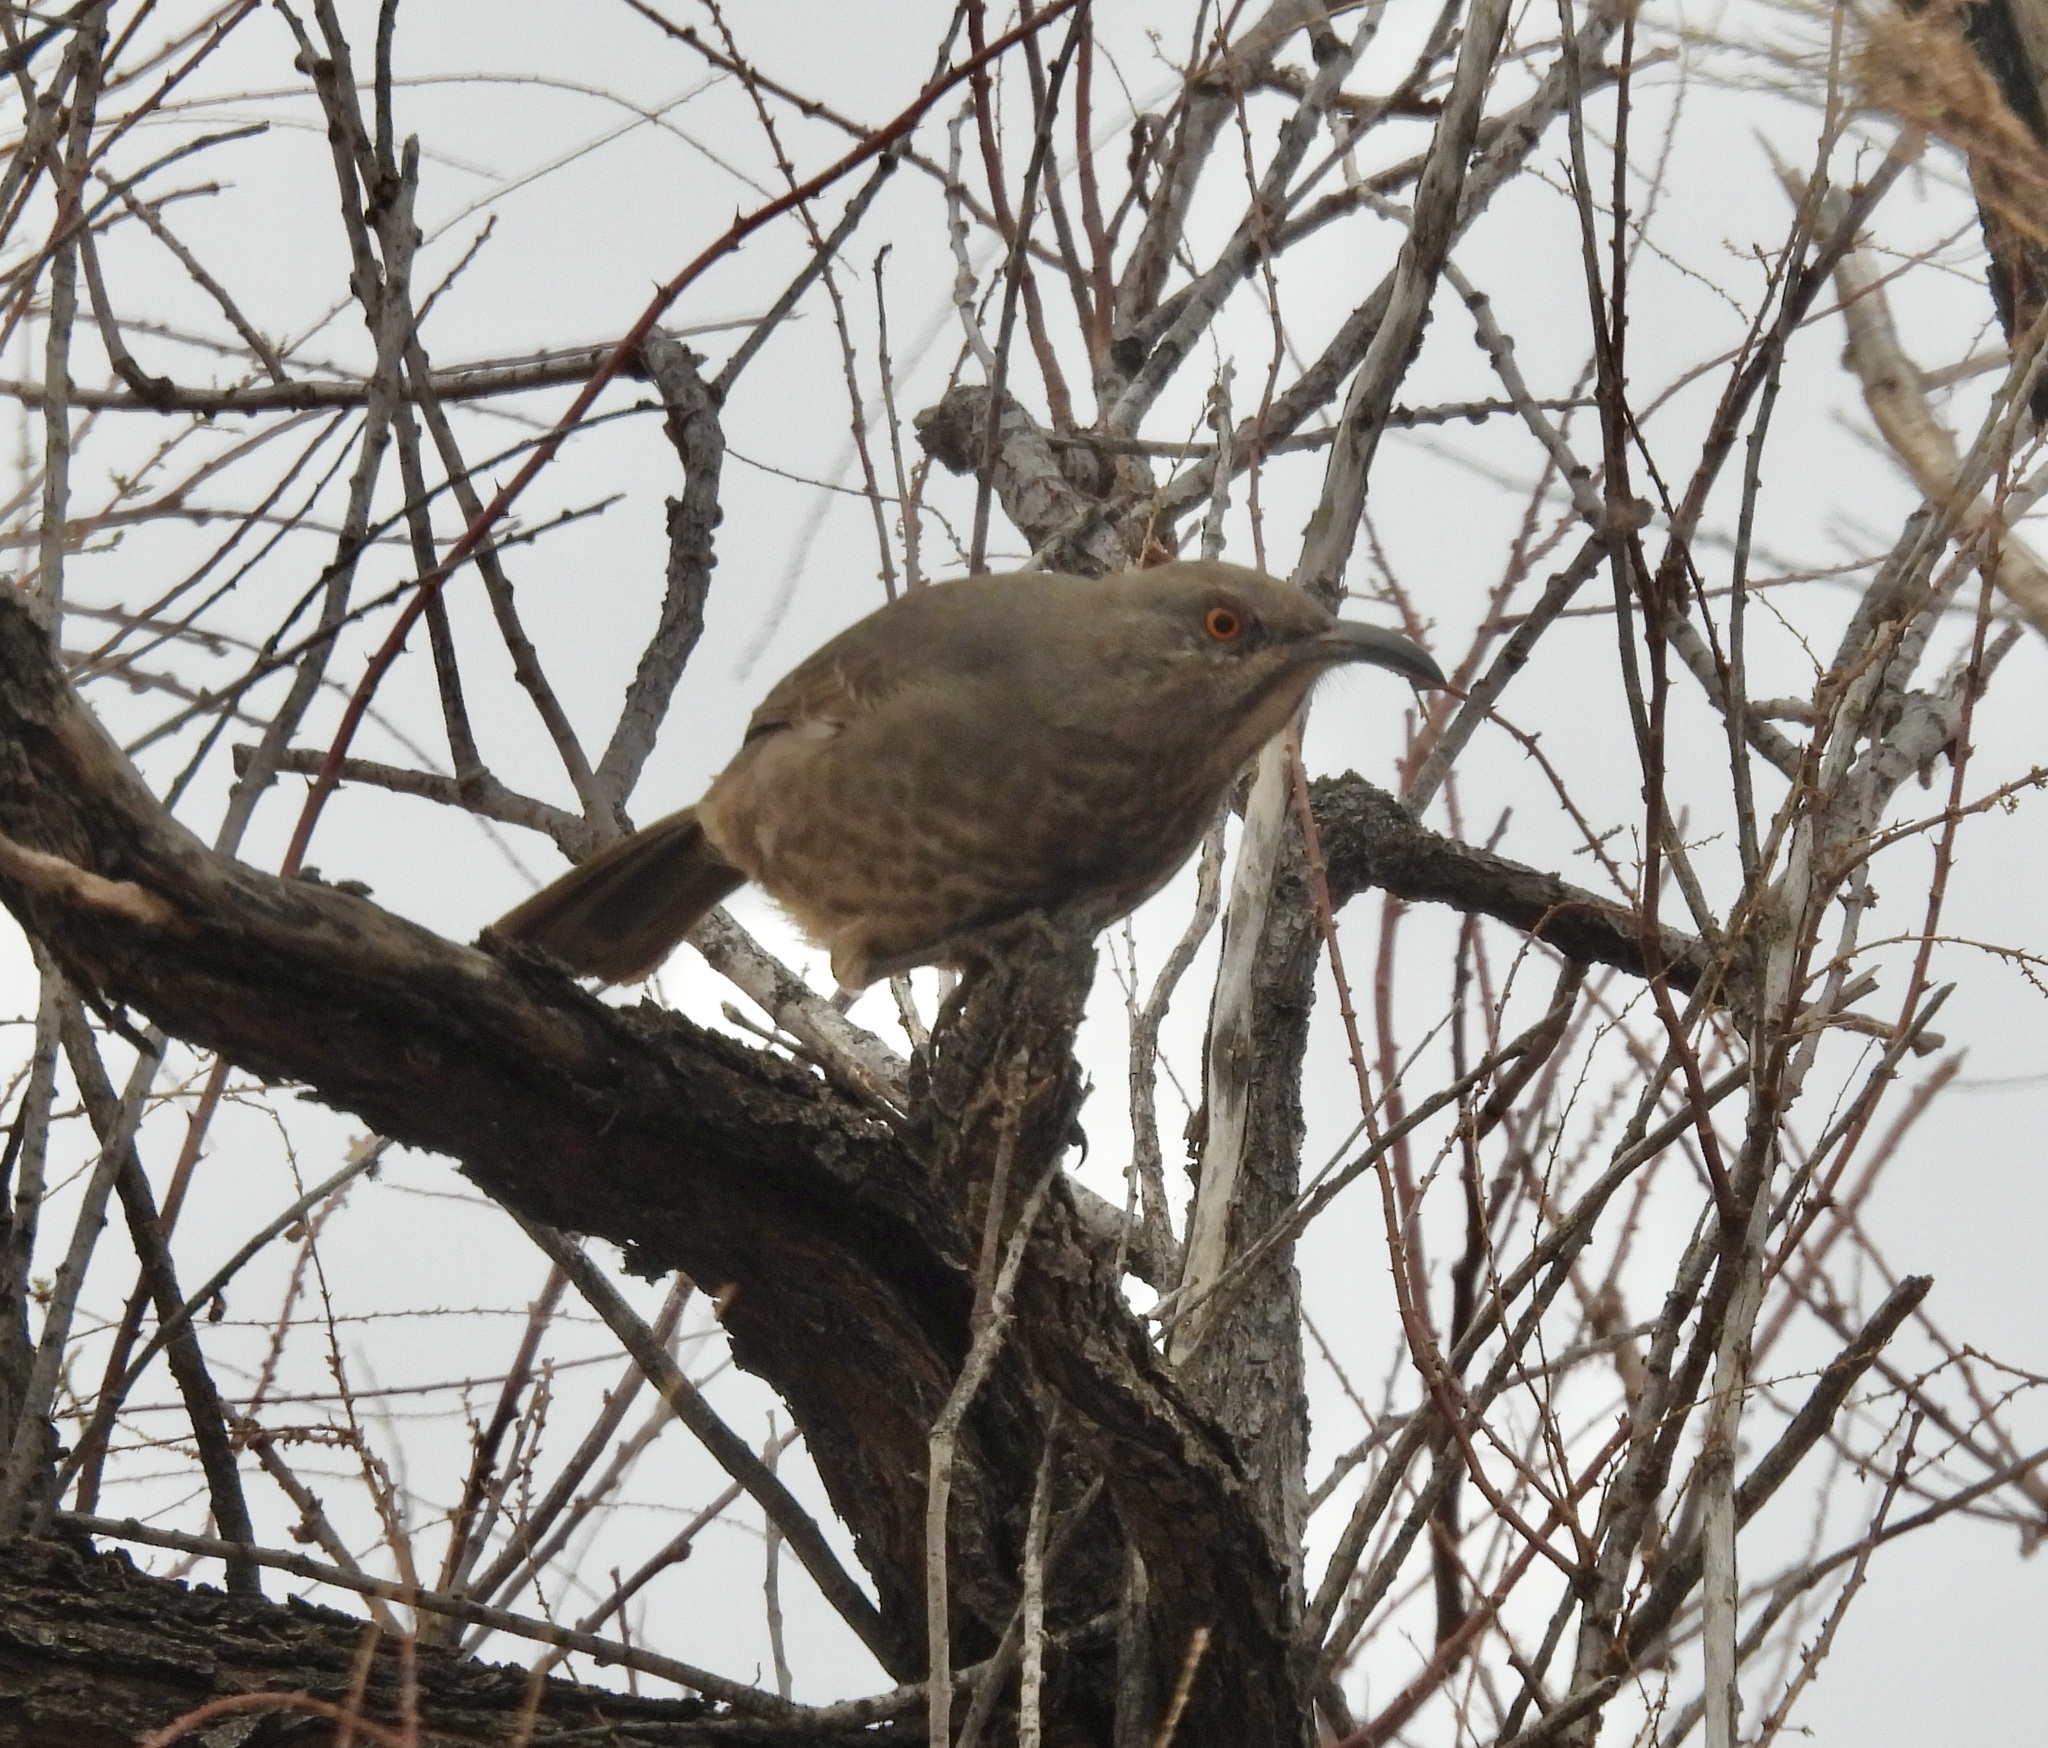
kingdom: Animalia
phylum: Chordata
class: Aves
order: Passeriformes
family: Mimidae
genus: Toxostoma
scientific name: Toxostoma curvirostre
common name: Curve-billed thrasher
